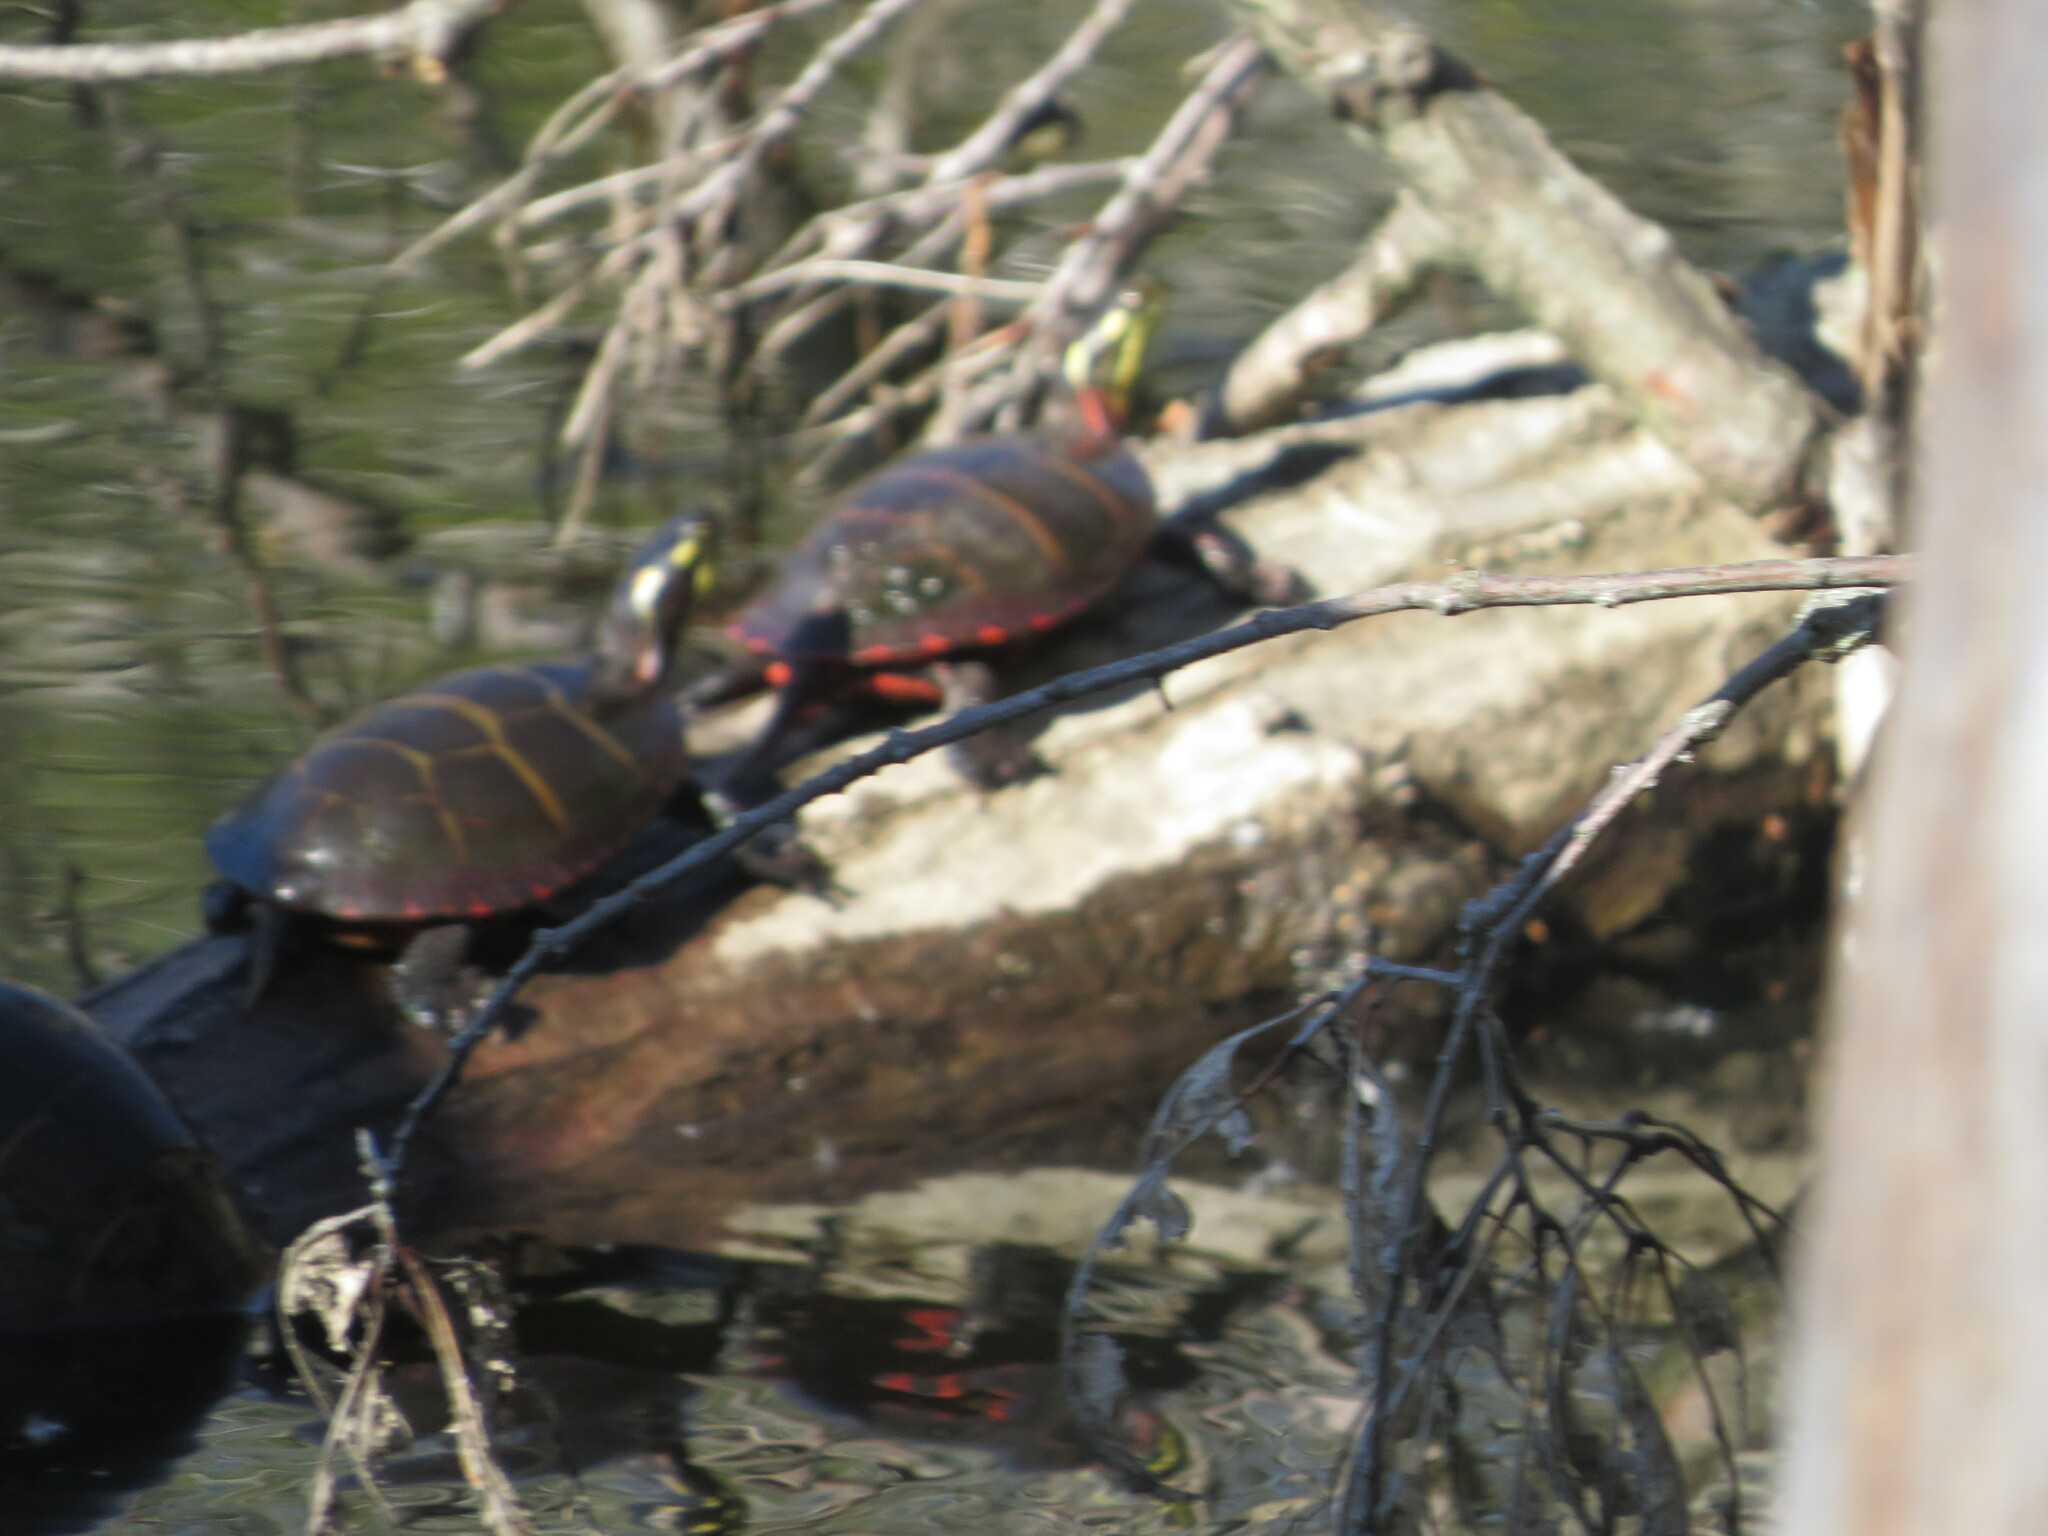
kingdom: Animalia
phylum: Chordata
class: Testudines
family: Emydidae
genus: Chrysemys
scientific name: Chrysemys picta
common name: Painted turtle
